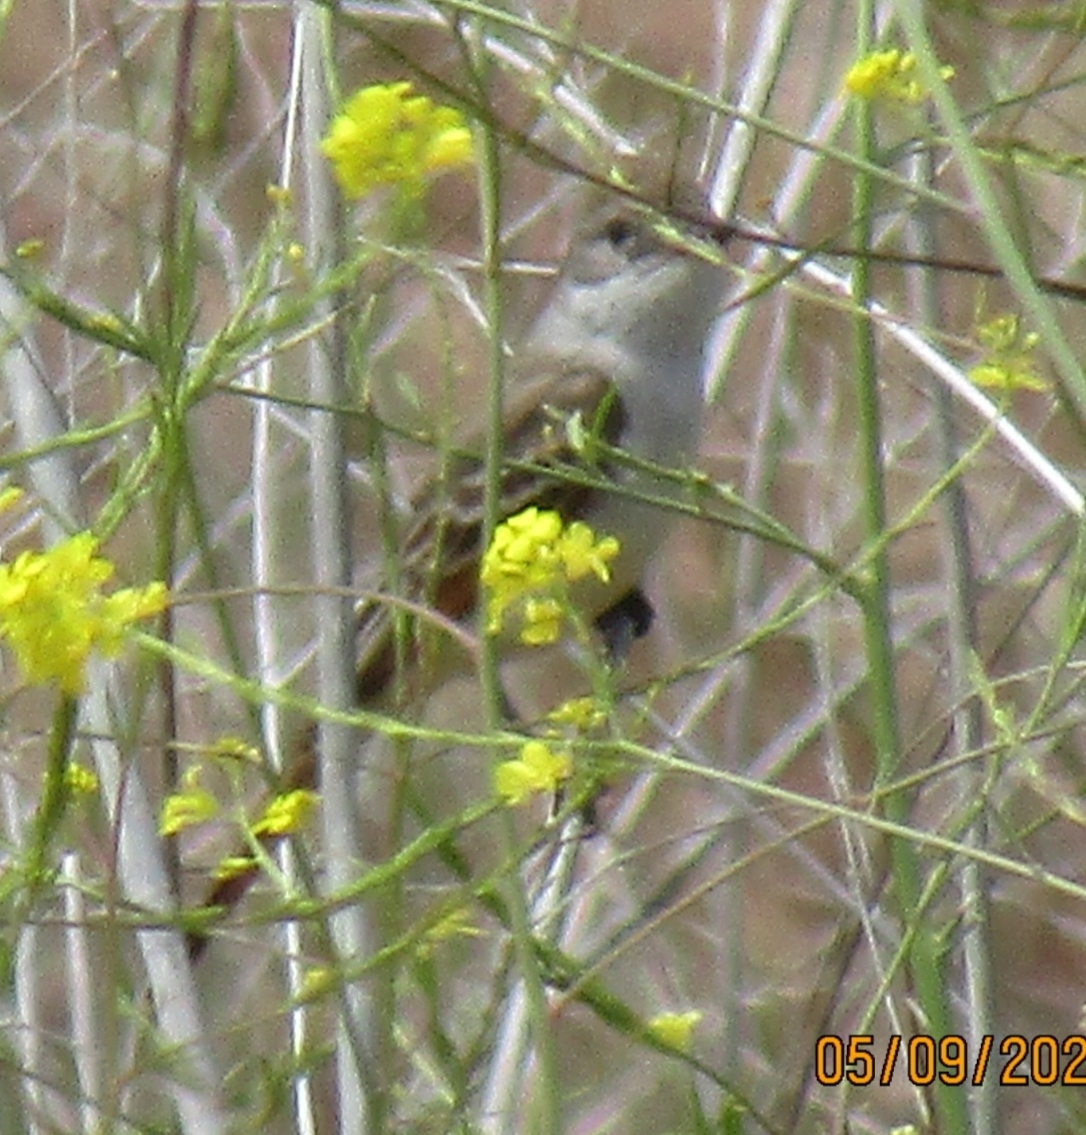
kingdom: Animalia
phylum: Chordata
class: Aves
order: Passeriformes
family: Tyrannidae
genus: Myiarchus
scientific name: Myiarchus cinerascens
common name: Ash-throated flycatcher
